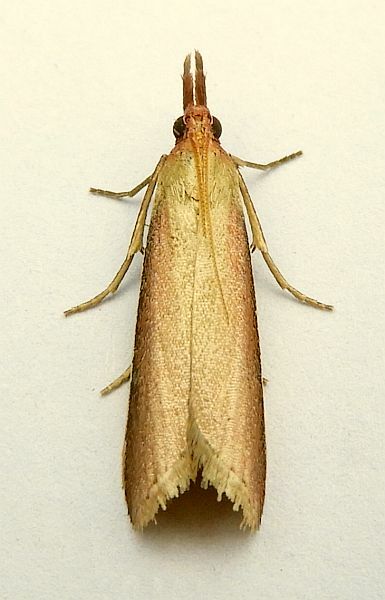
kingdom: Animalia
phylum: Arthropoda
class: Insecta
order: Lepidoptera
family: Pyralidae
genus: Peoria
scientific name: Peoria approximella
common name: Carmine snout
